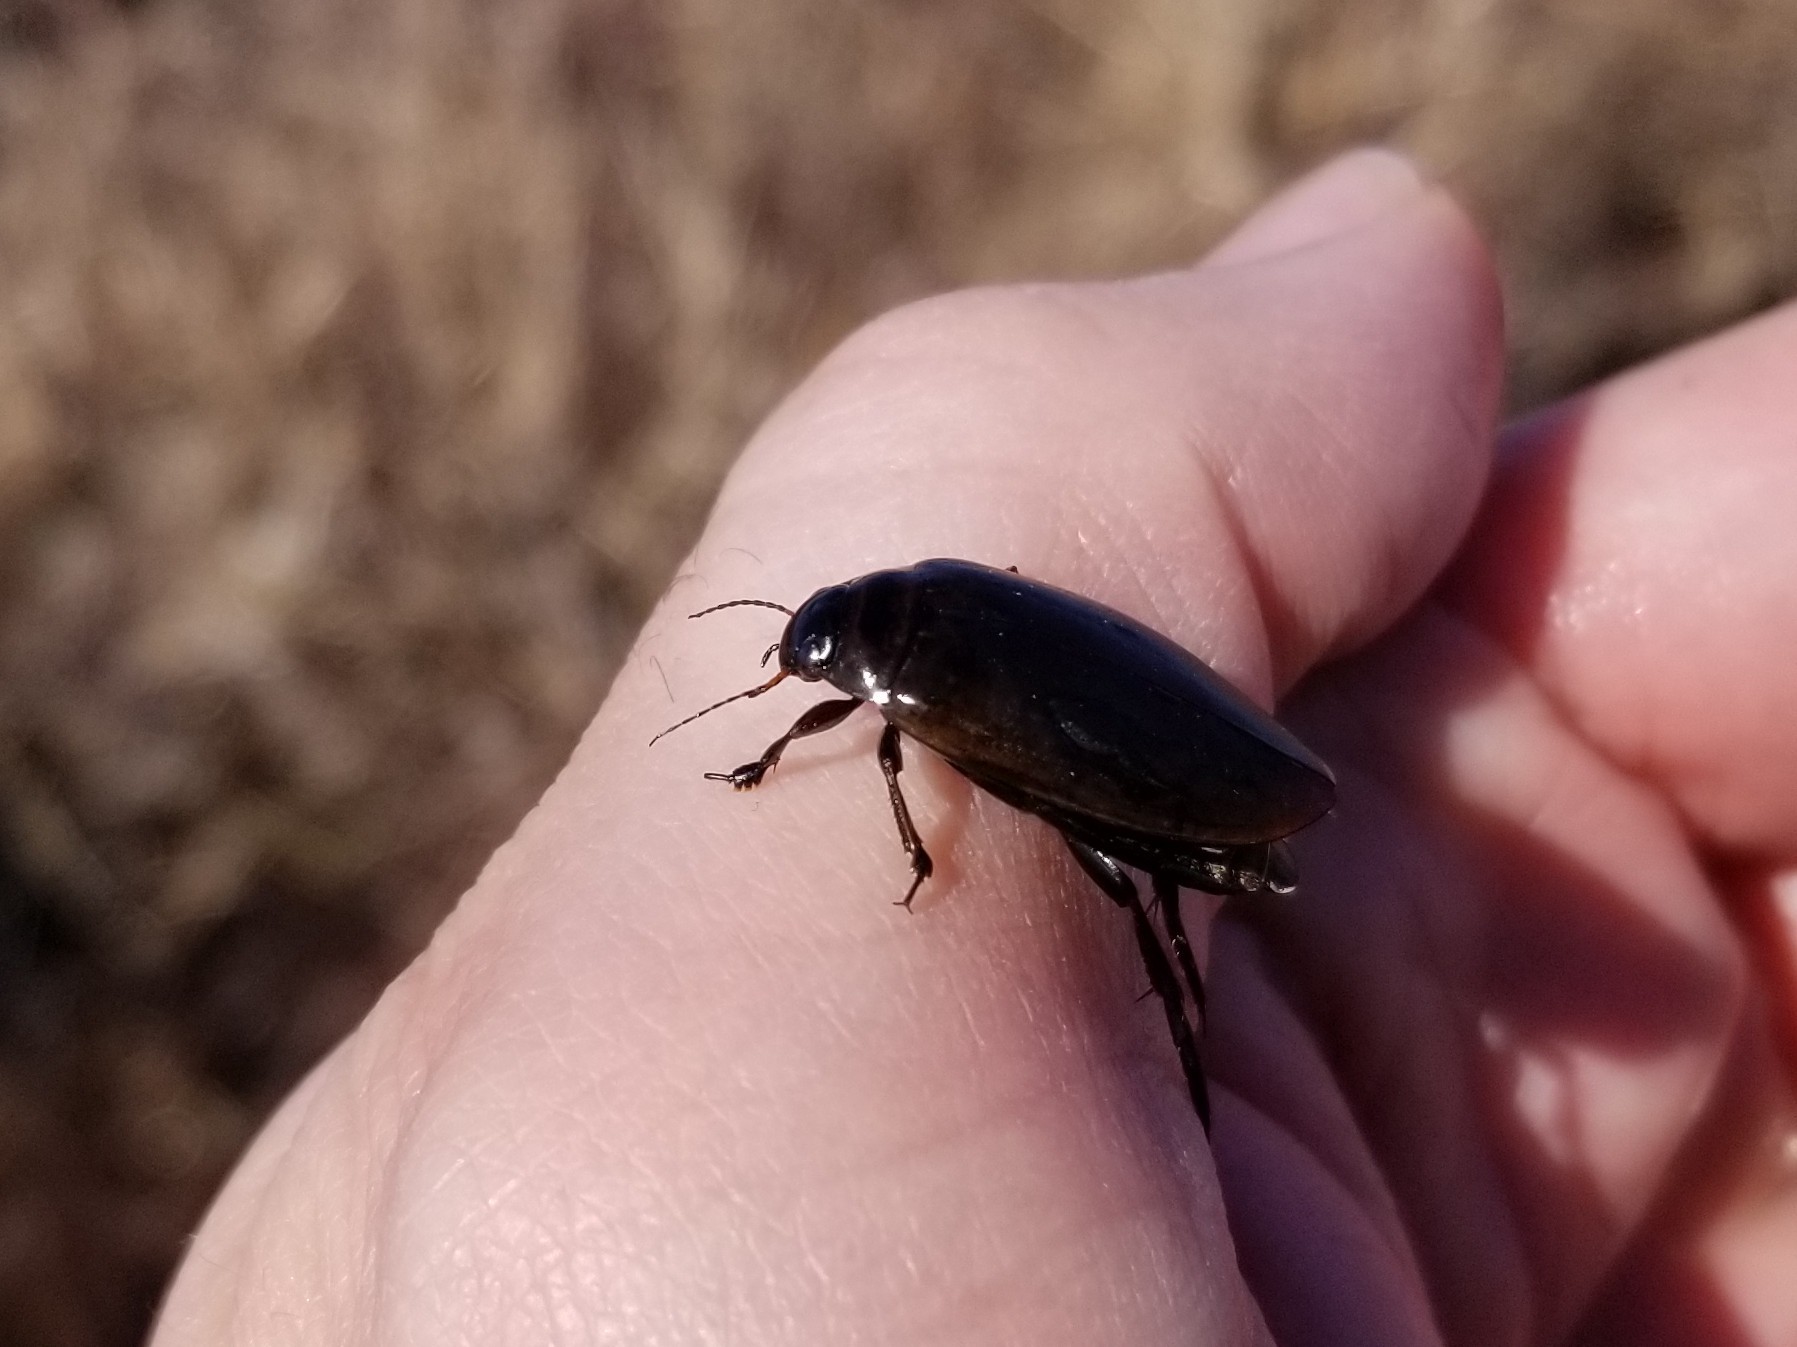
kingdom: Animalia
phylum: Arthropoda
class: Insecta
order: Coleoptera
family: Dytiscidae
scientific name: Dytiscidae
